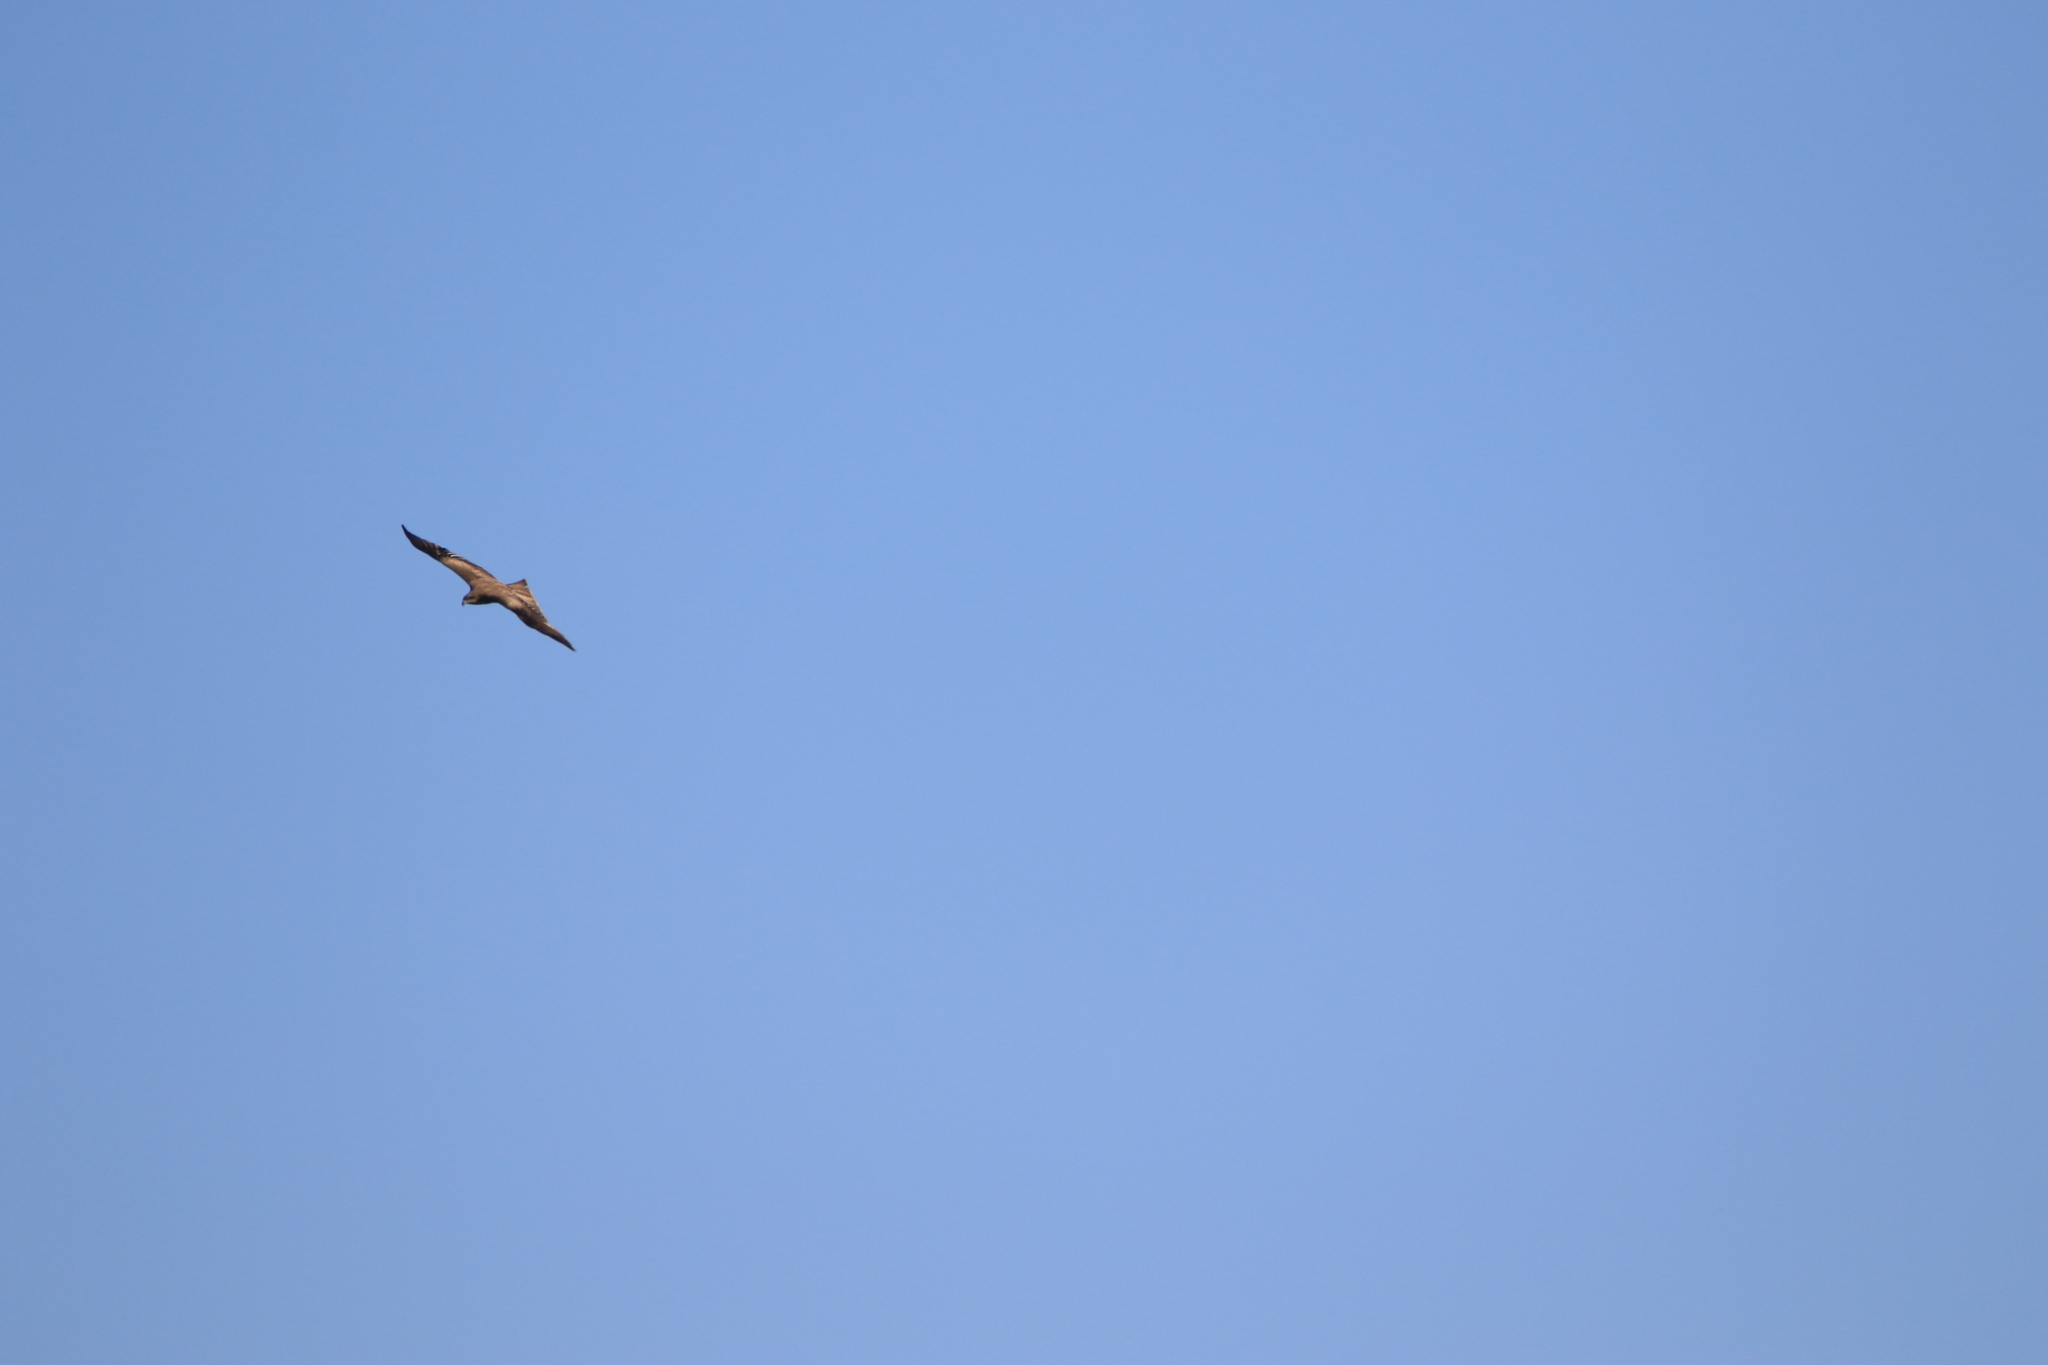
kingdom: Animalia
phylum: Chordata
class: Aves
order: Accipitriformes
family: Accipitridae
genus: Milvus
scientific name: Milvus migrans
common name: Black kite
